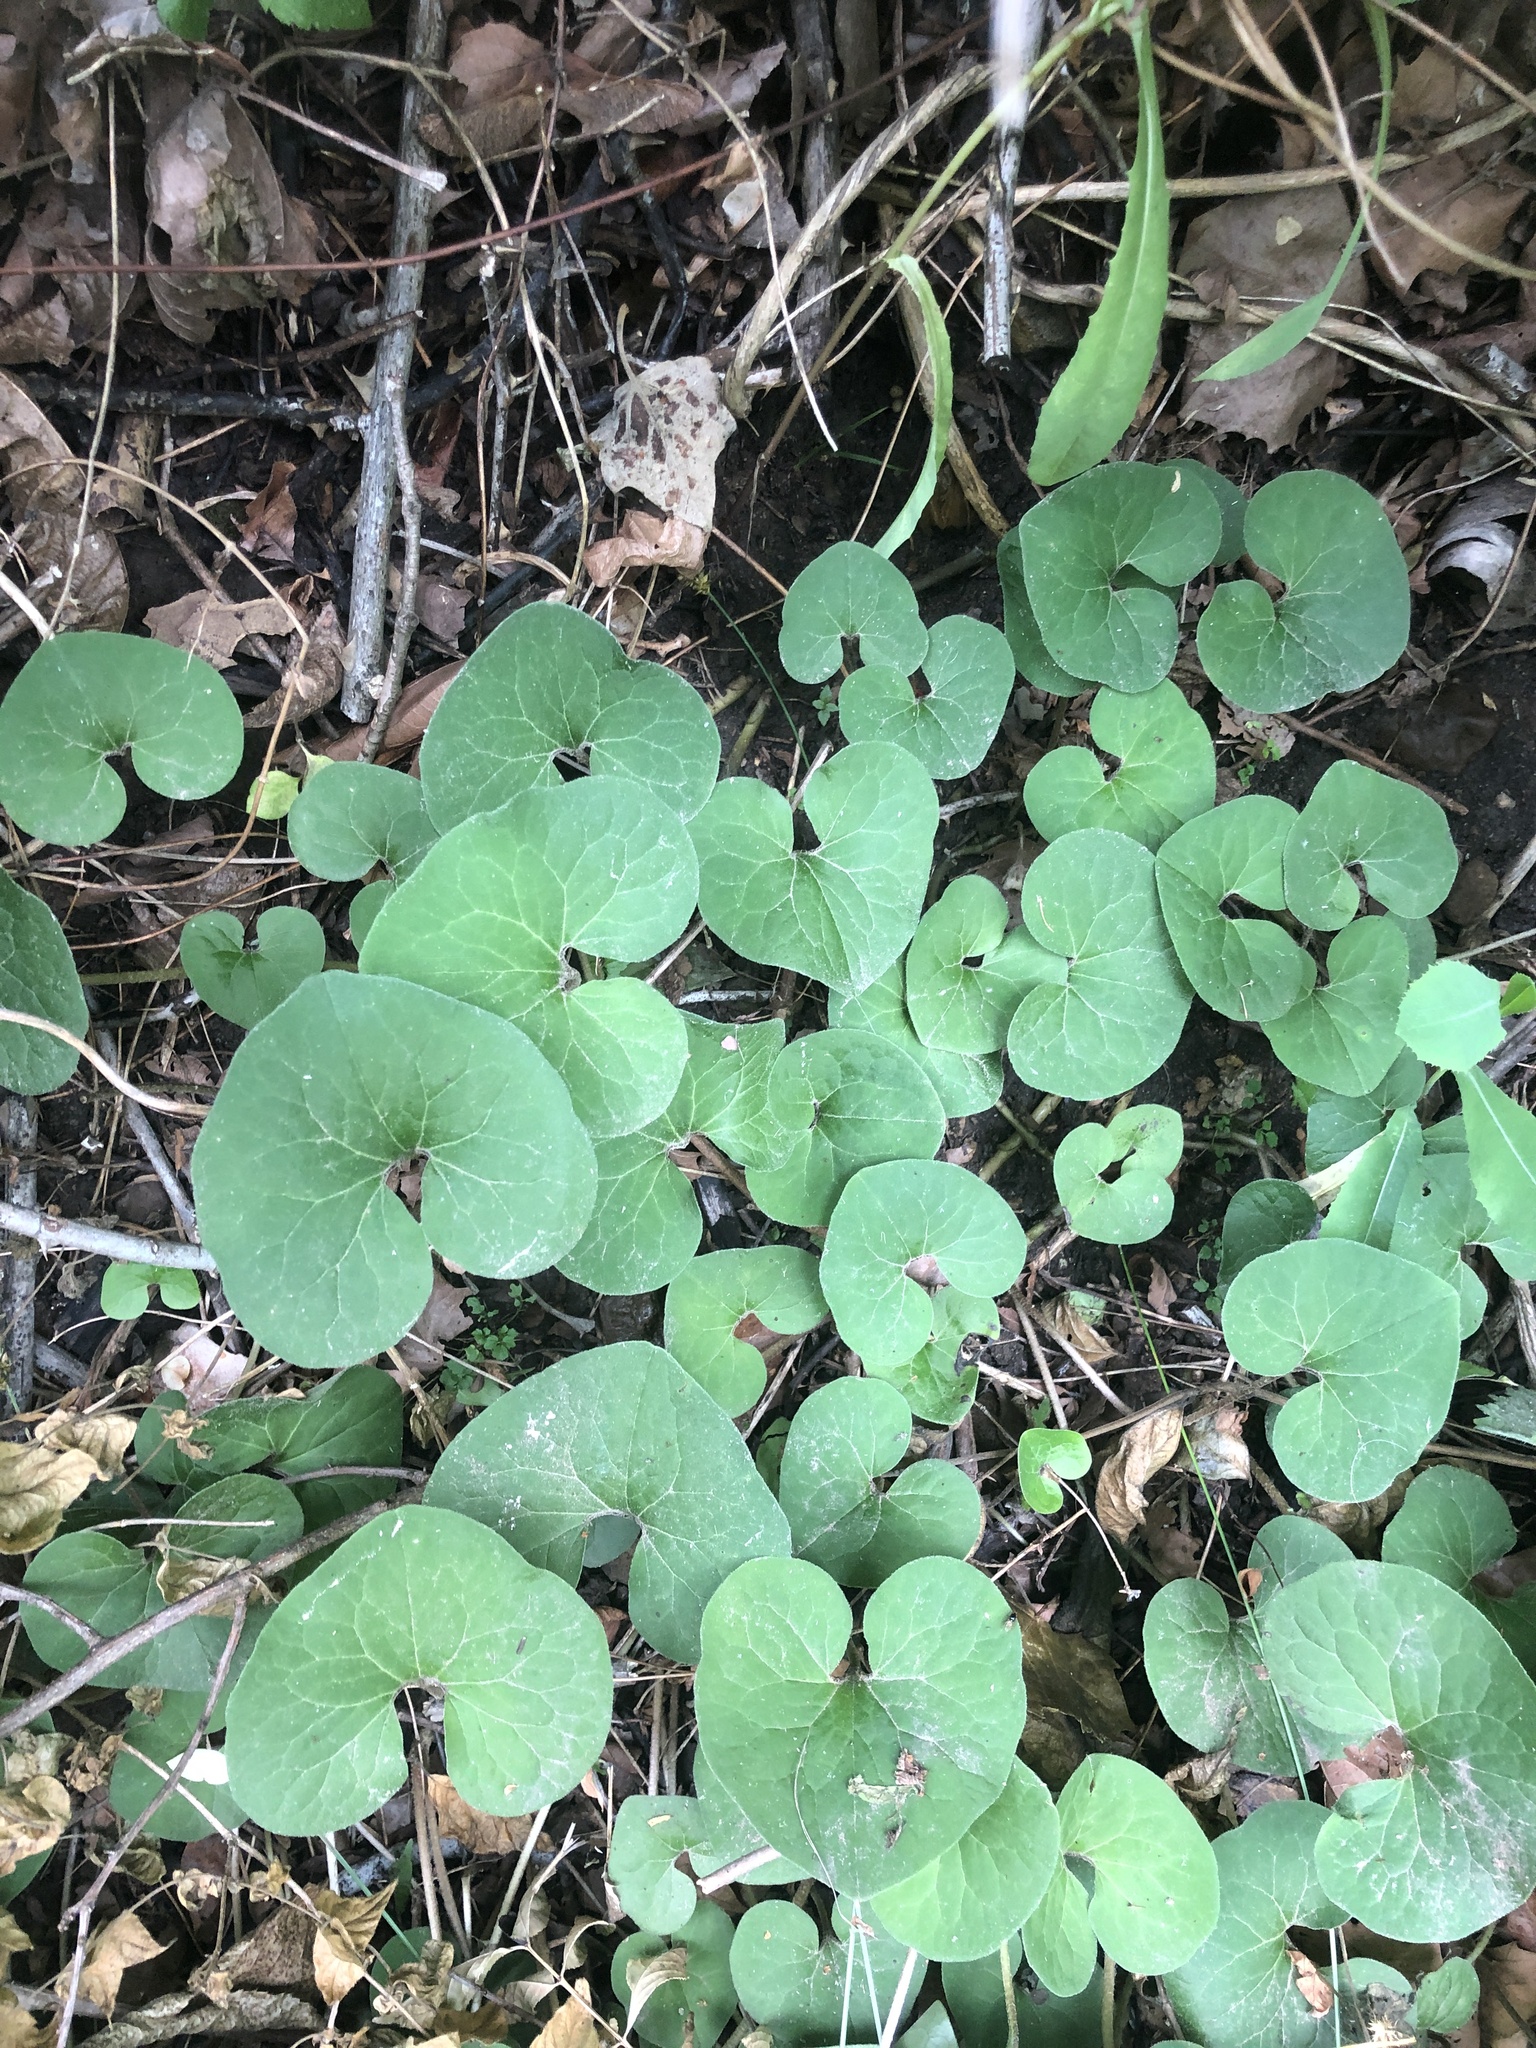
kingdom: Plantae
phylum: Tracheophyta
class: Magnoliopsida
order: Piperales
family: Aristolochiaceae
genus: Asarum
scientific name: Asarum canadense
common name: Wild ginger
